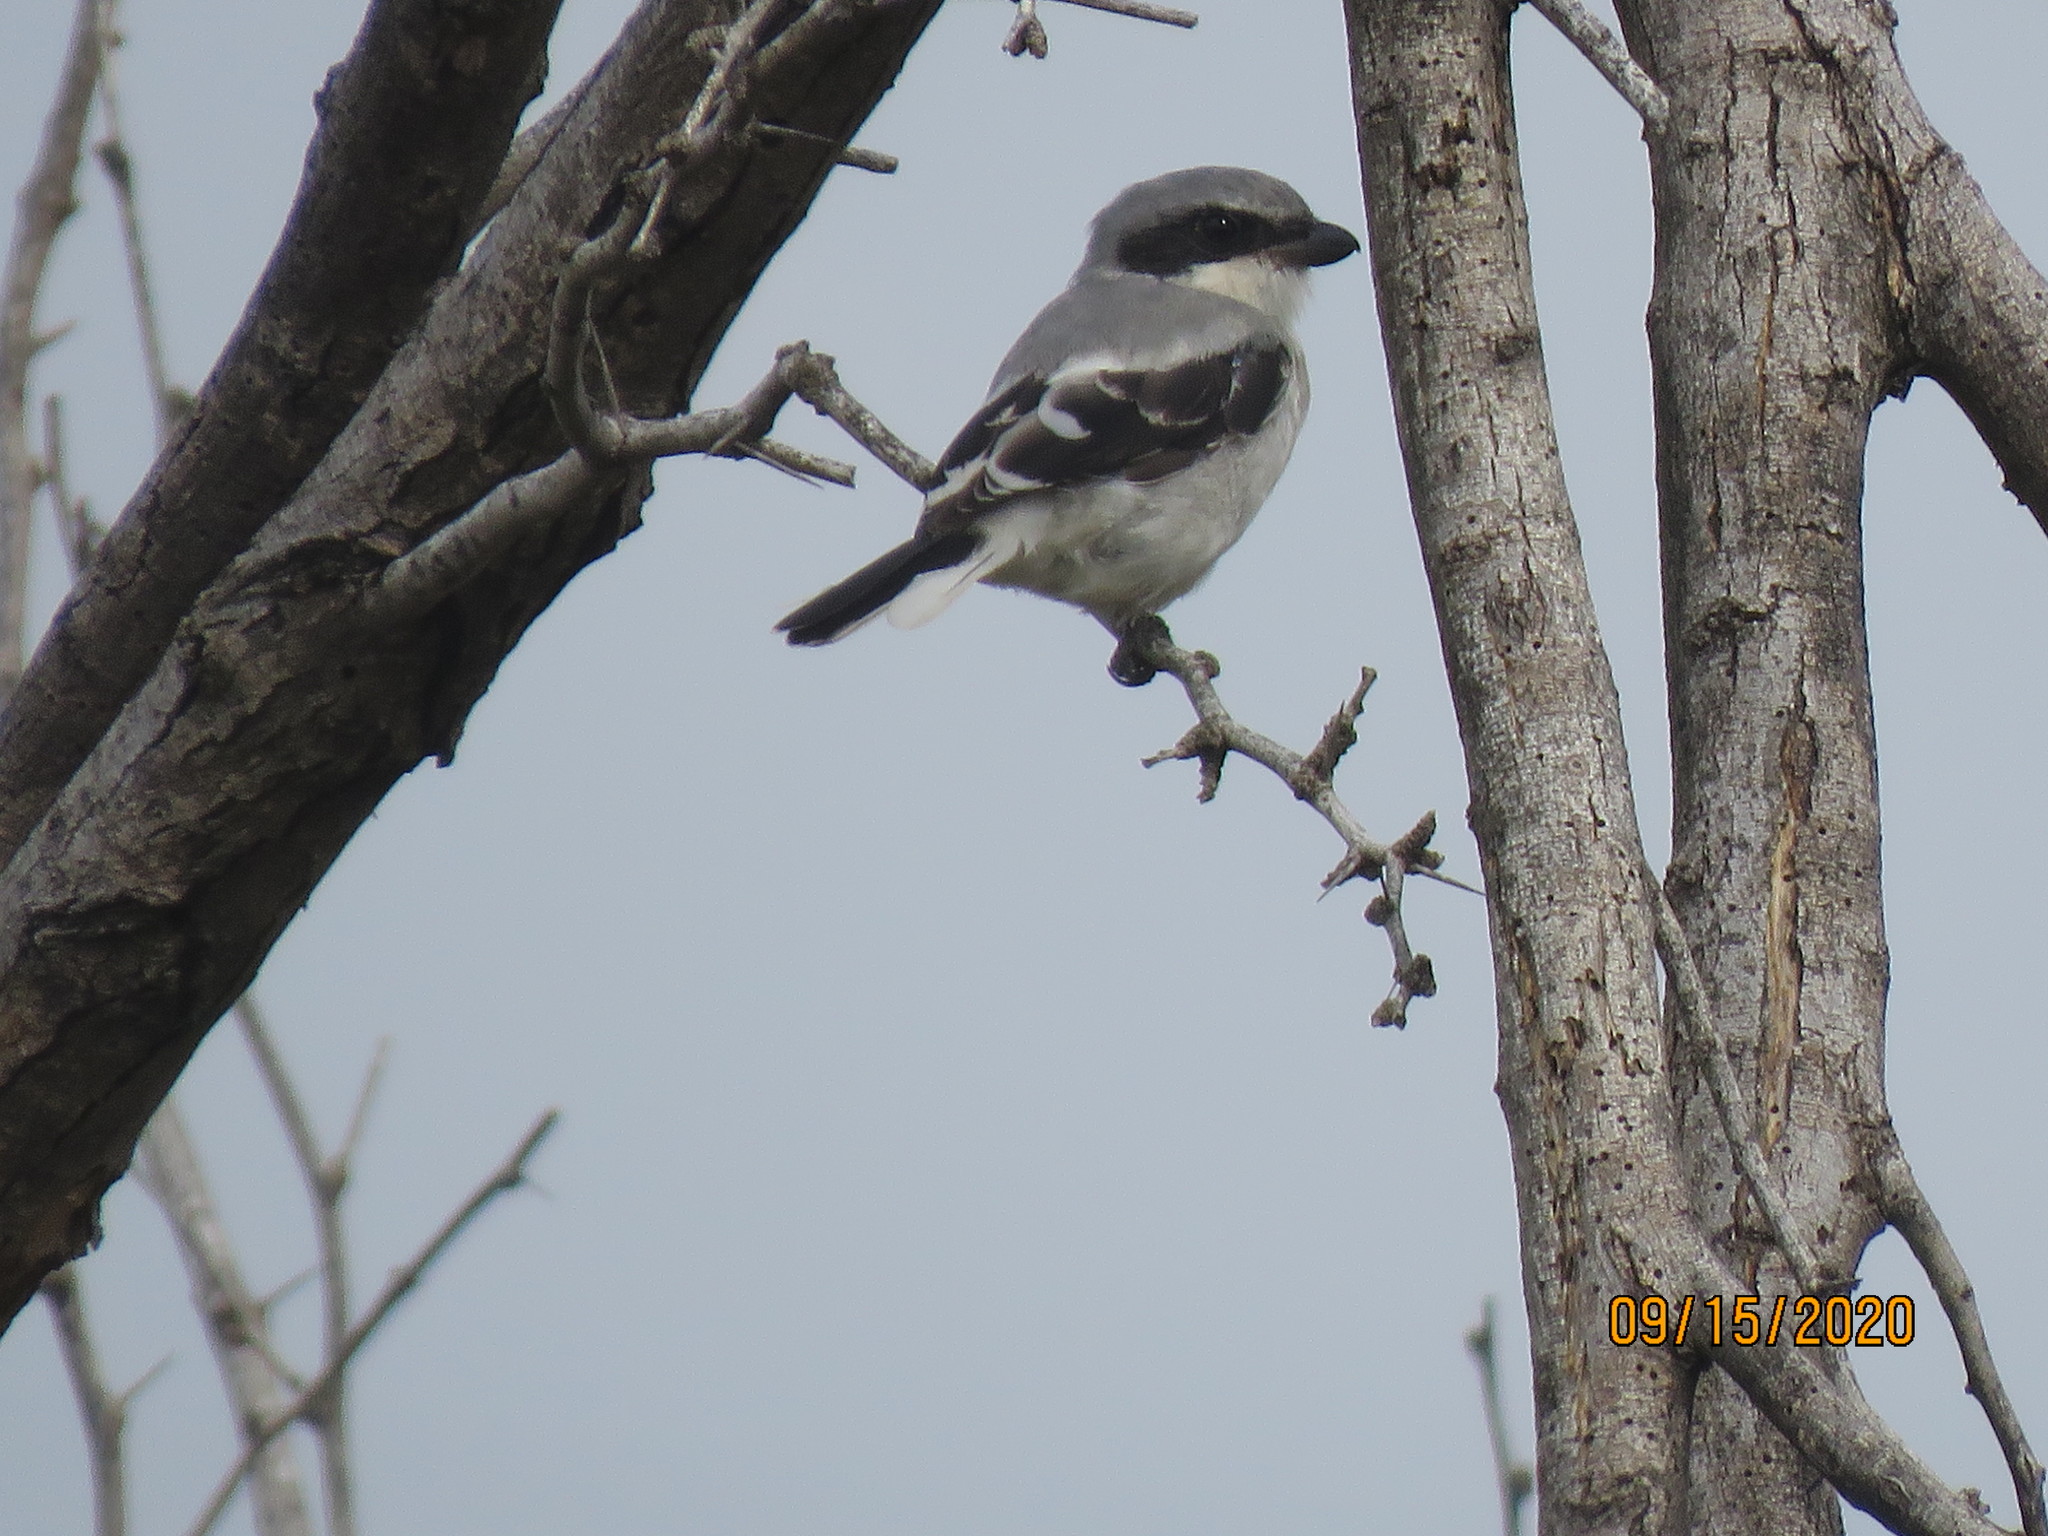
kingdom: Animalia
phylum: Chordata
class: Aves
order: Passeriformes
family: Laniidae
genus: Lanius
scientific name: Lanius ludovicianus
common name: Loggerhead shrike
